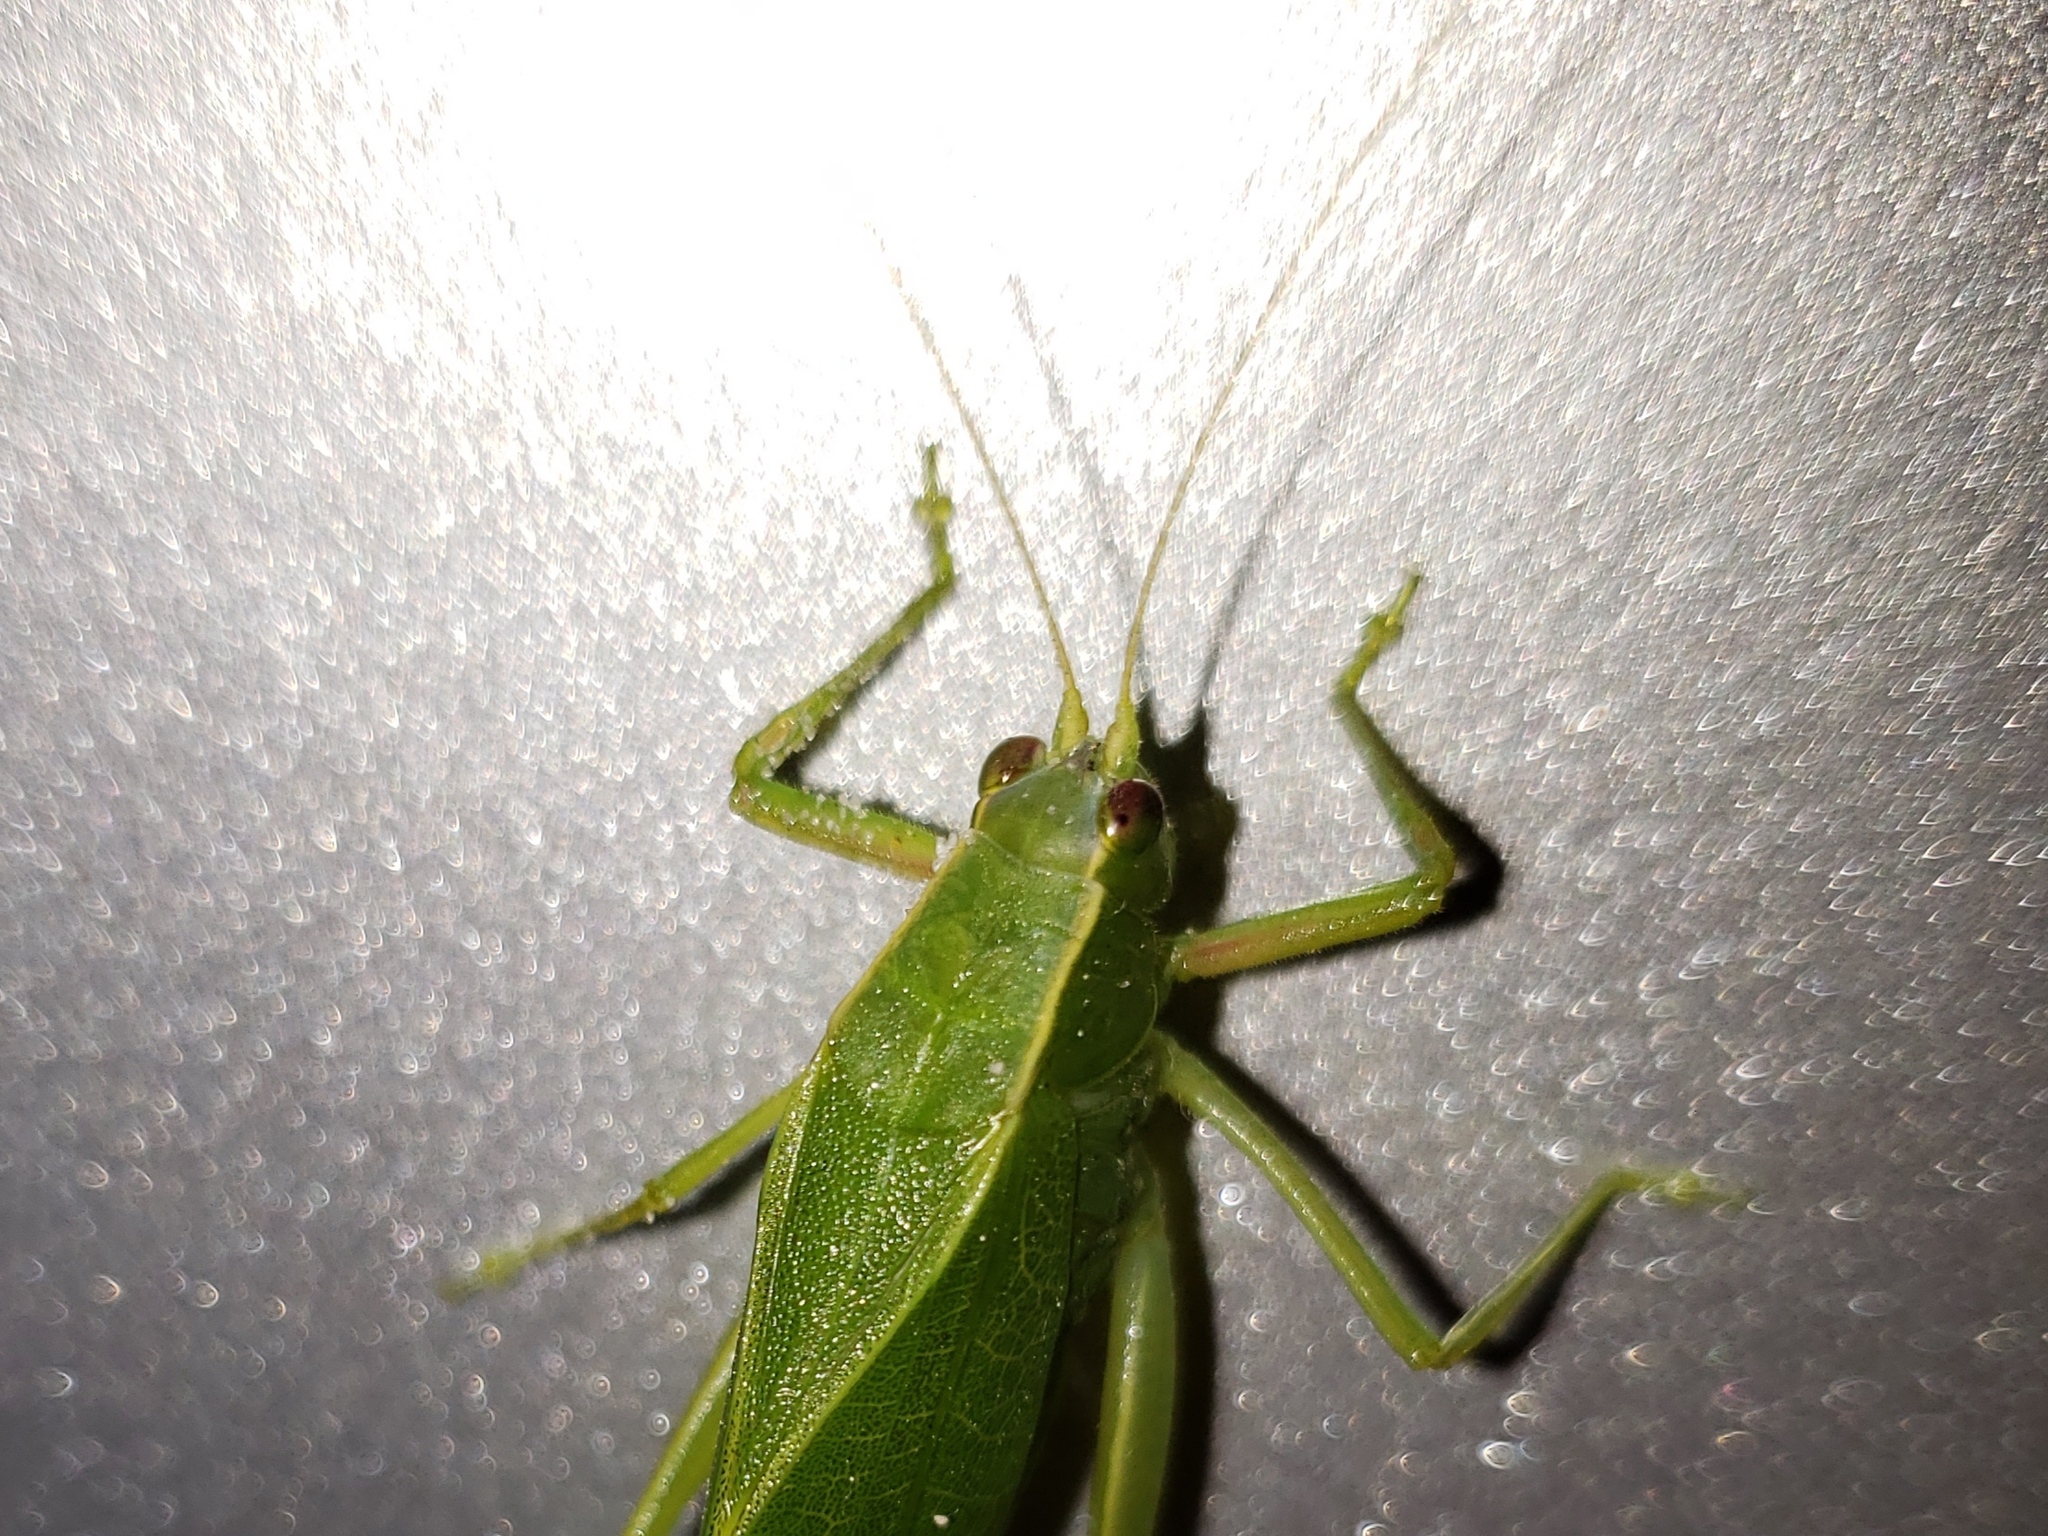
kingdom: Animalia
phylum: Arthropoda
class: Insecta
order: Orthoptera
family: Tettigoniidae
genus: Turpilia
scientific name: Turpilia rostrata
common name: Narrow-beaked katydid
